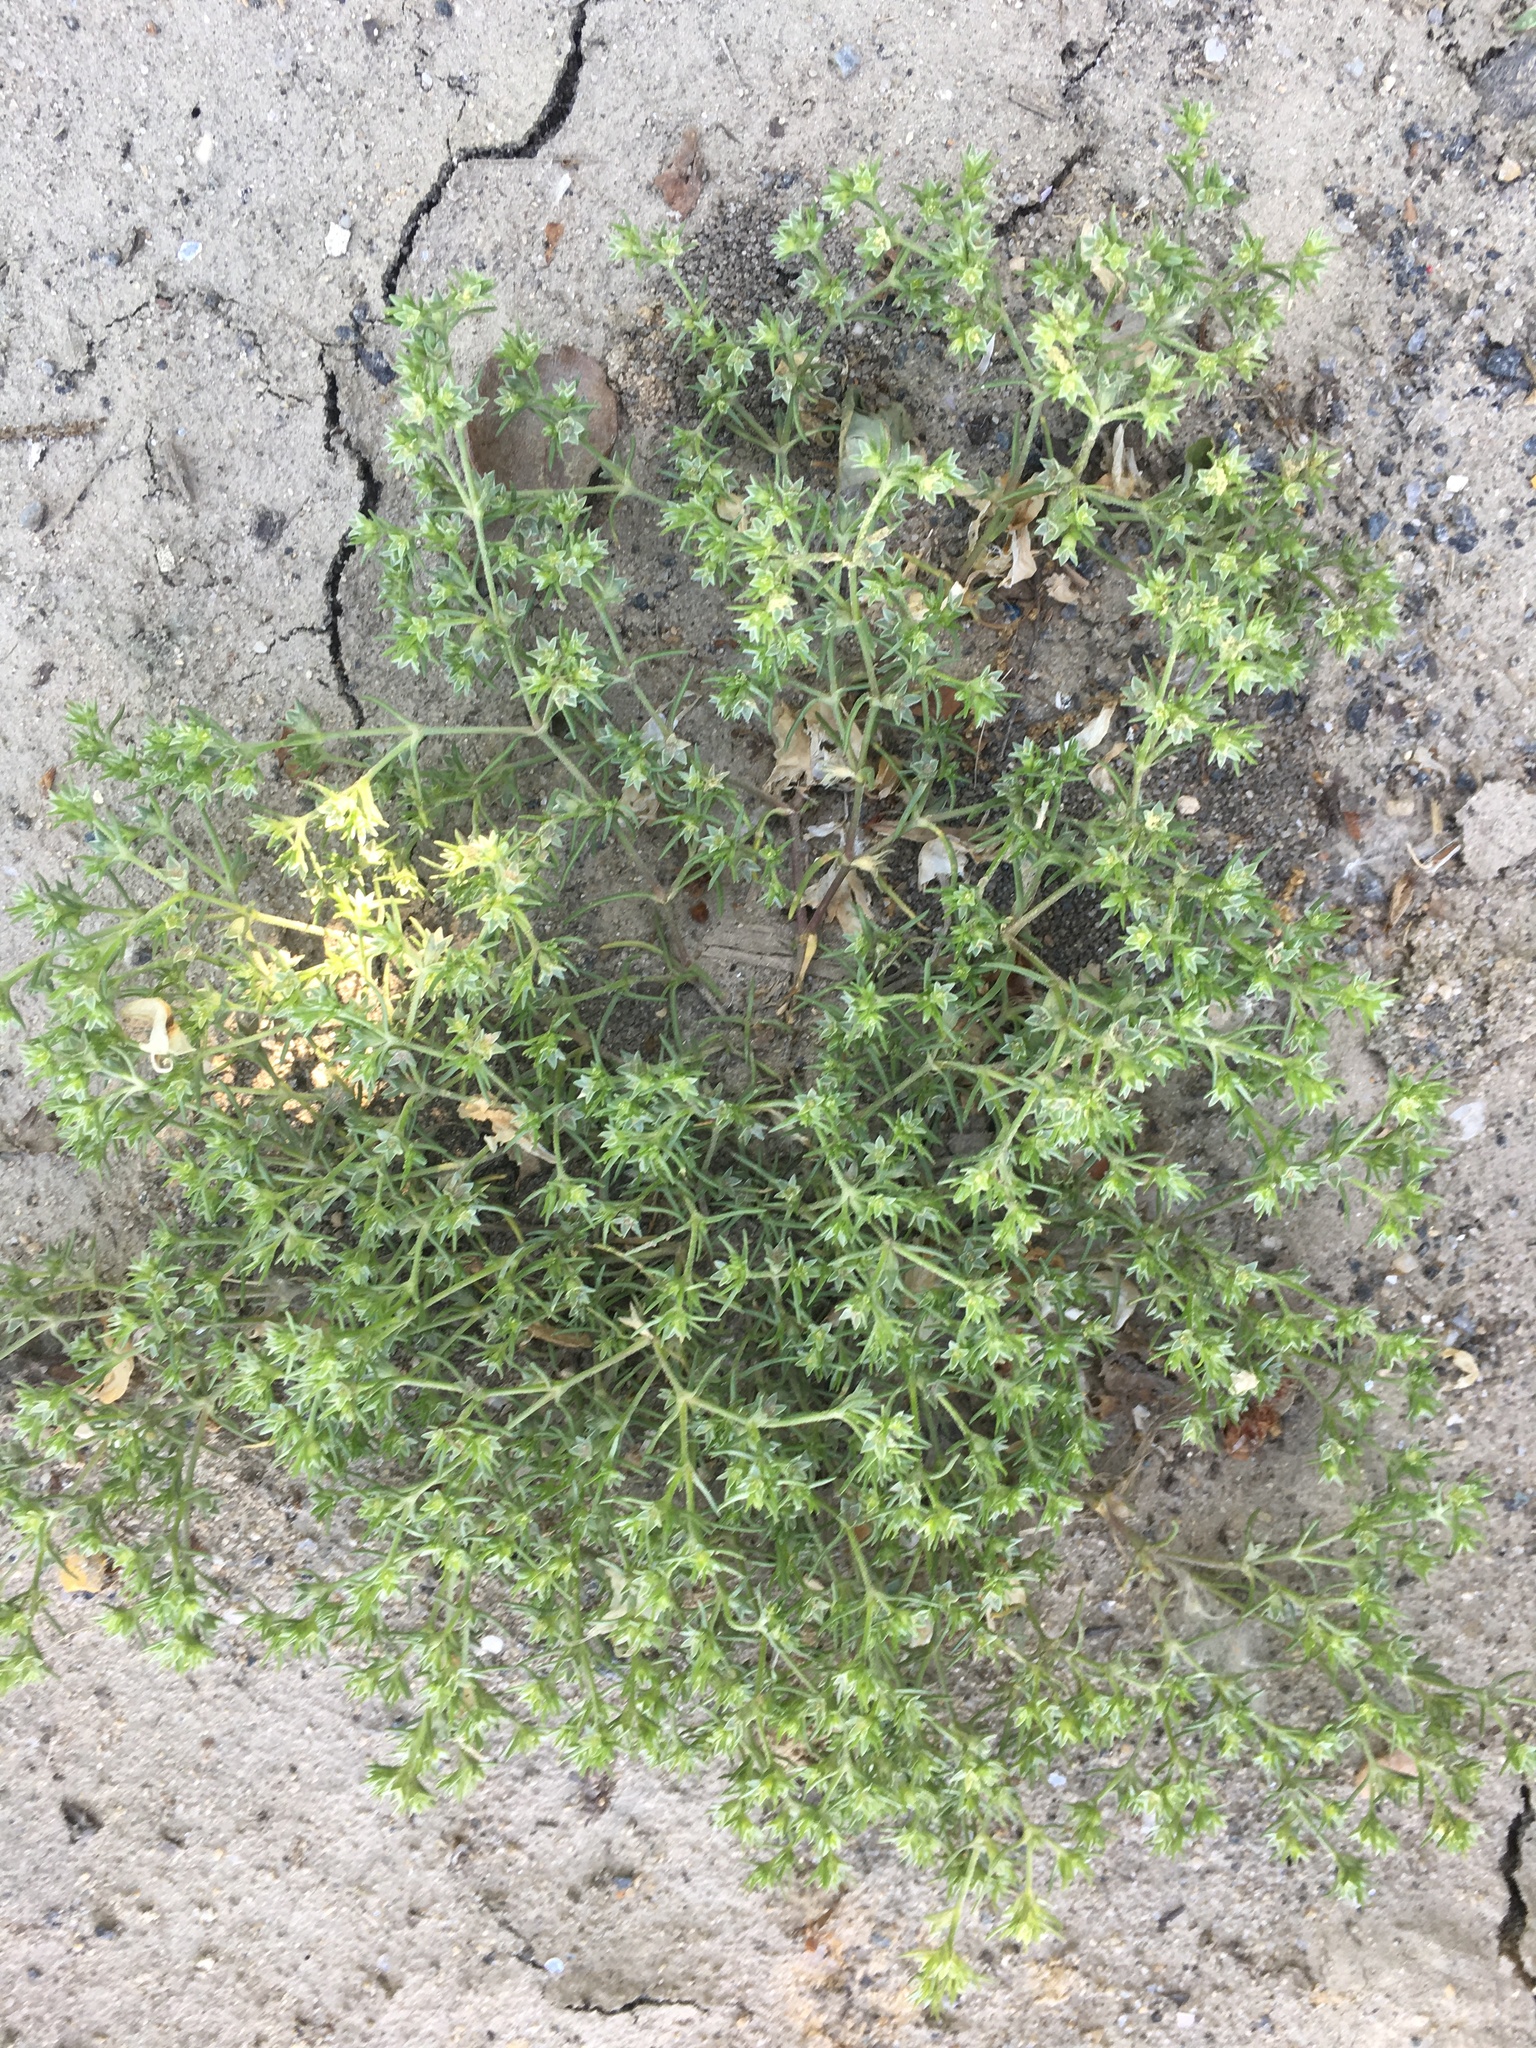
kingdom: Plantae
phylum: Tracheophyta
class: Magnoliopsida
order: Caryophyllales
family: Caryophyllaceae
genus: Scleranthus
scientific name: Scleranthus annuus
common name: Annual knawel
